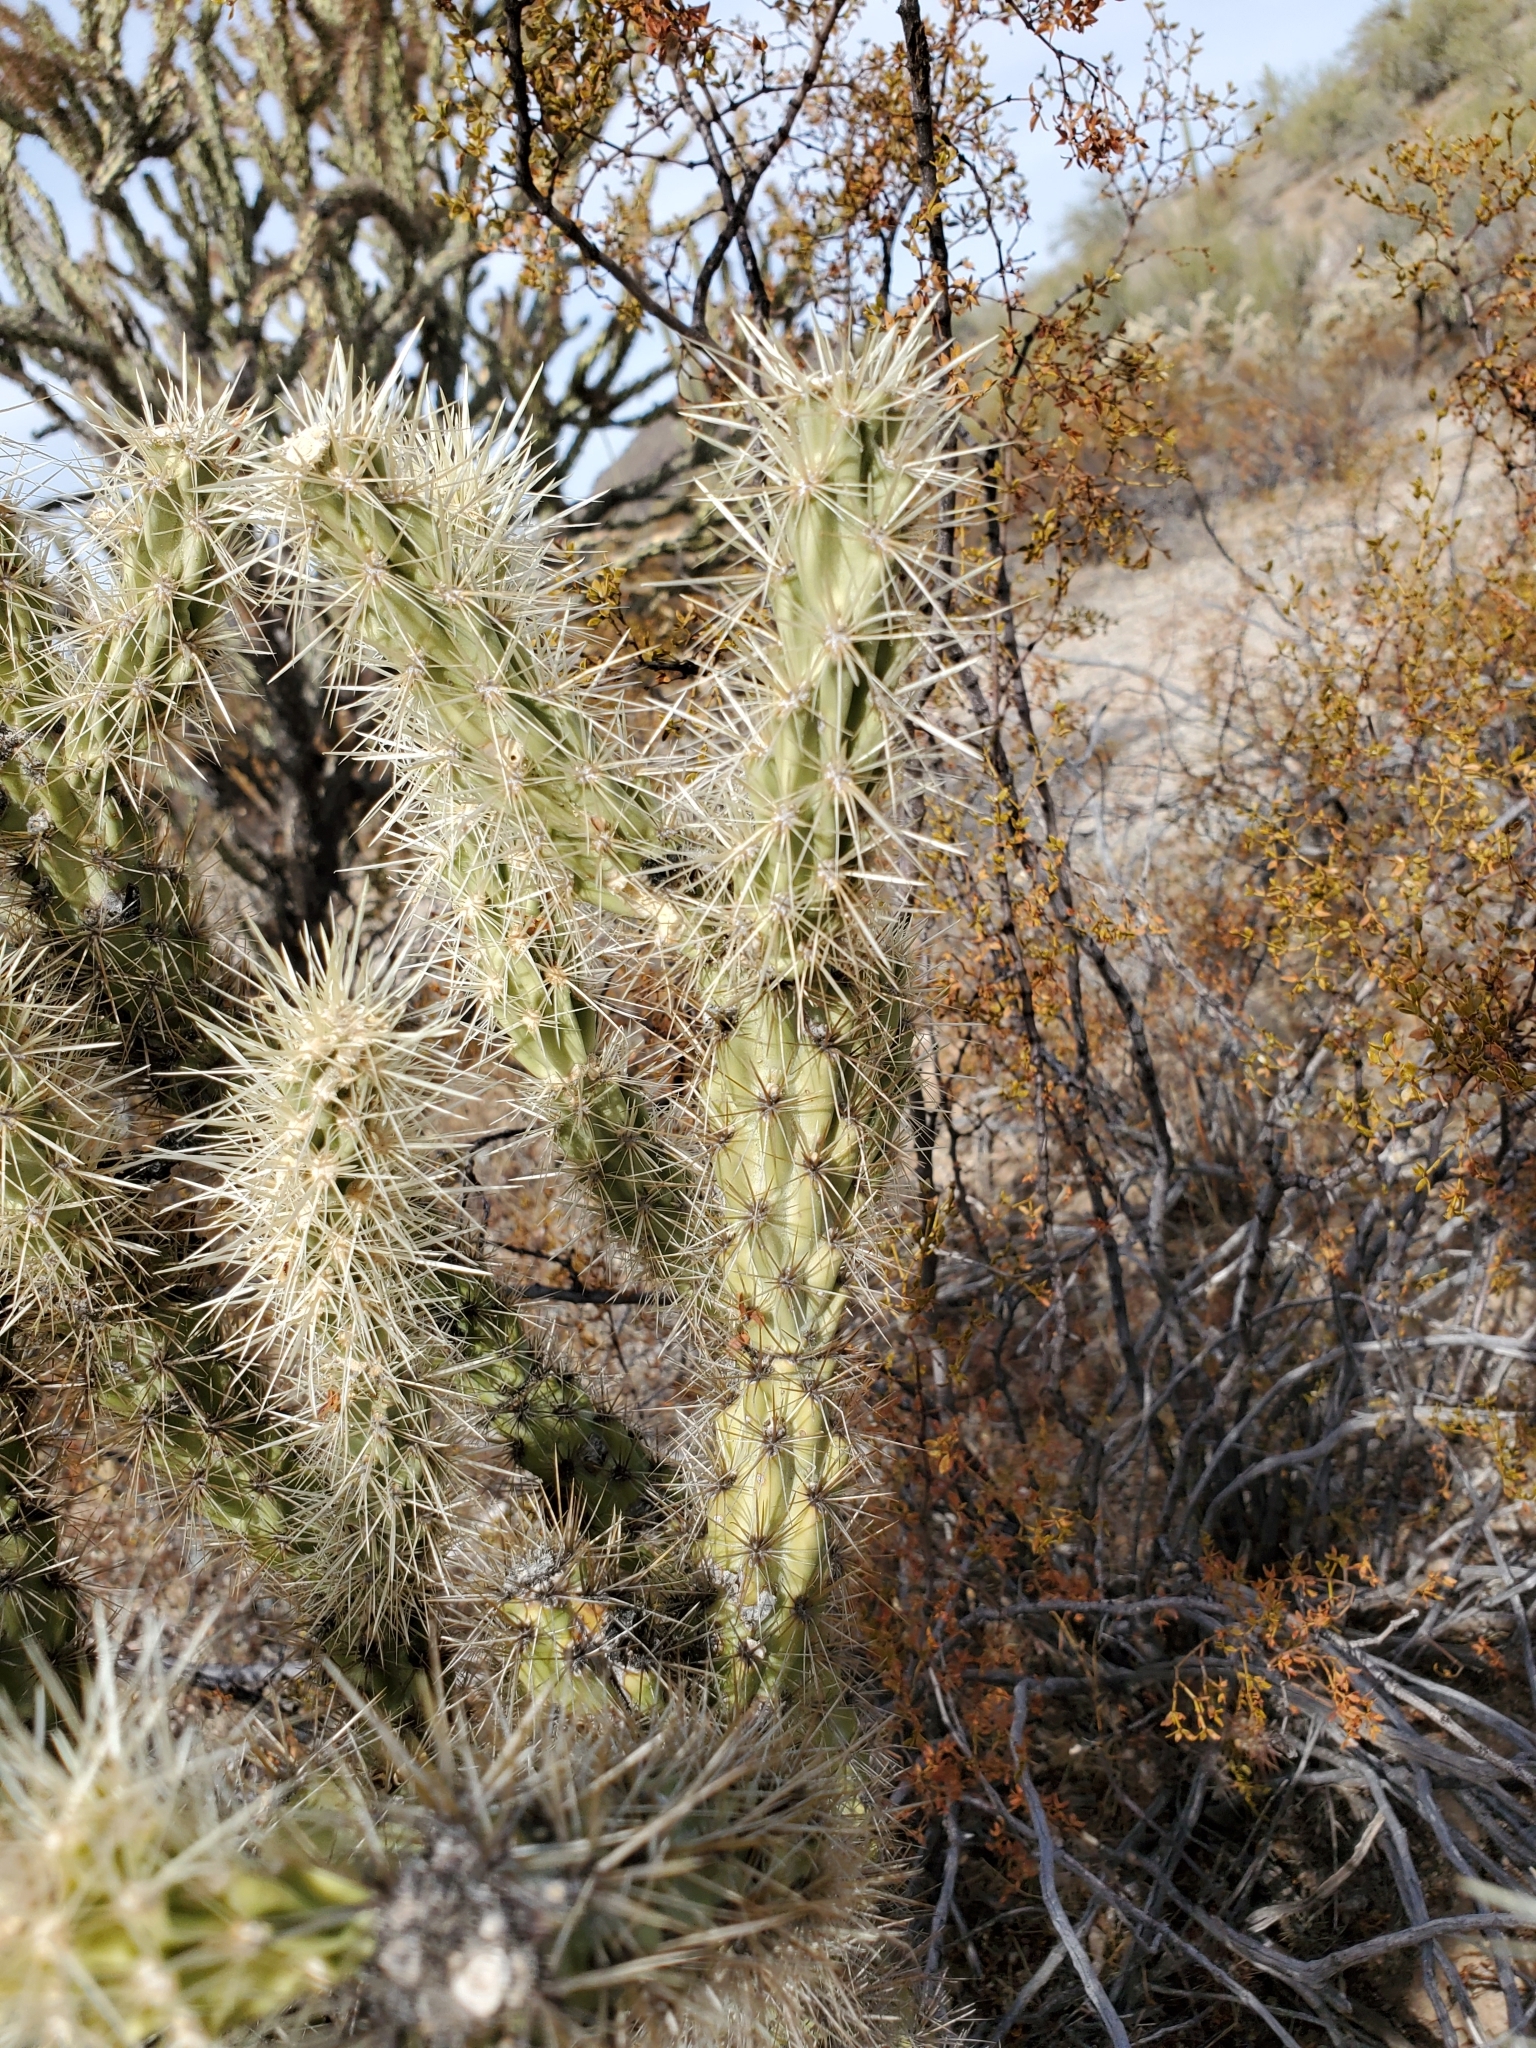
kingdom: Plantae
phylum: Tracheophyta
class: Magnoliopsida
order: Caryophyllales
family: Cactaceae
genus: Cylindropuntia
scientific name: Cylindropuntia acanthocarpa
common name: Buckhorn cholla
